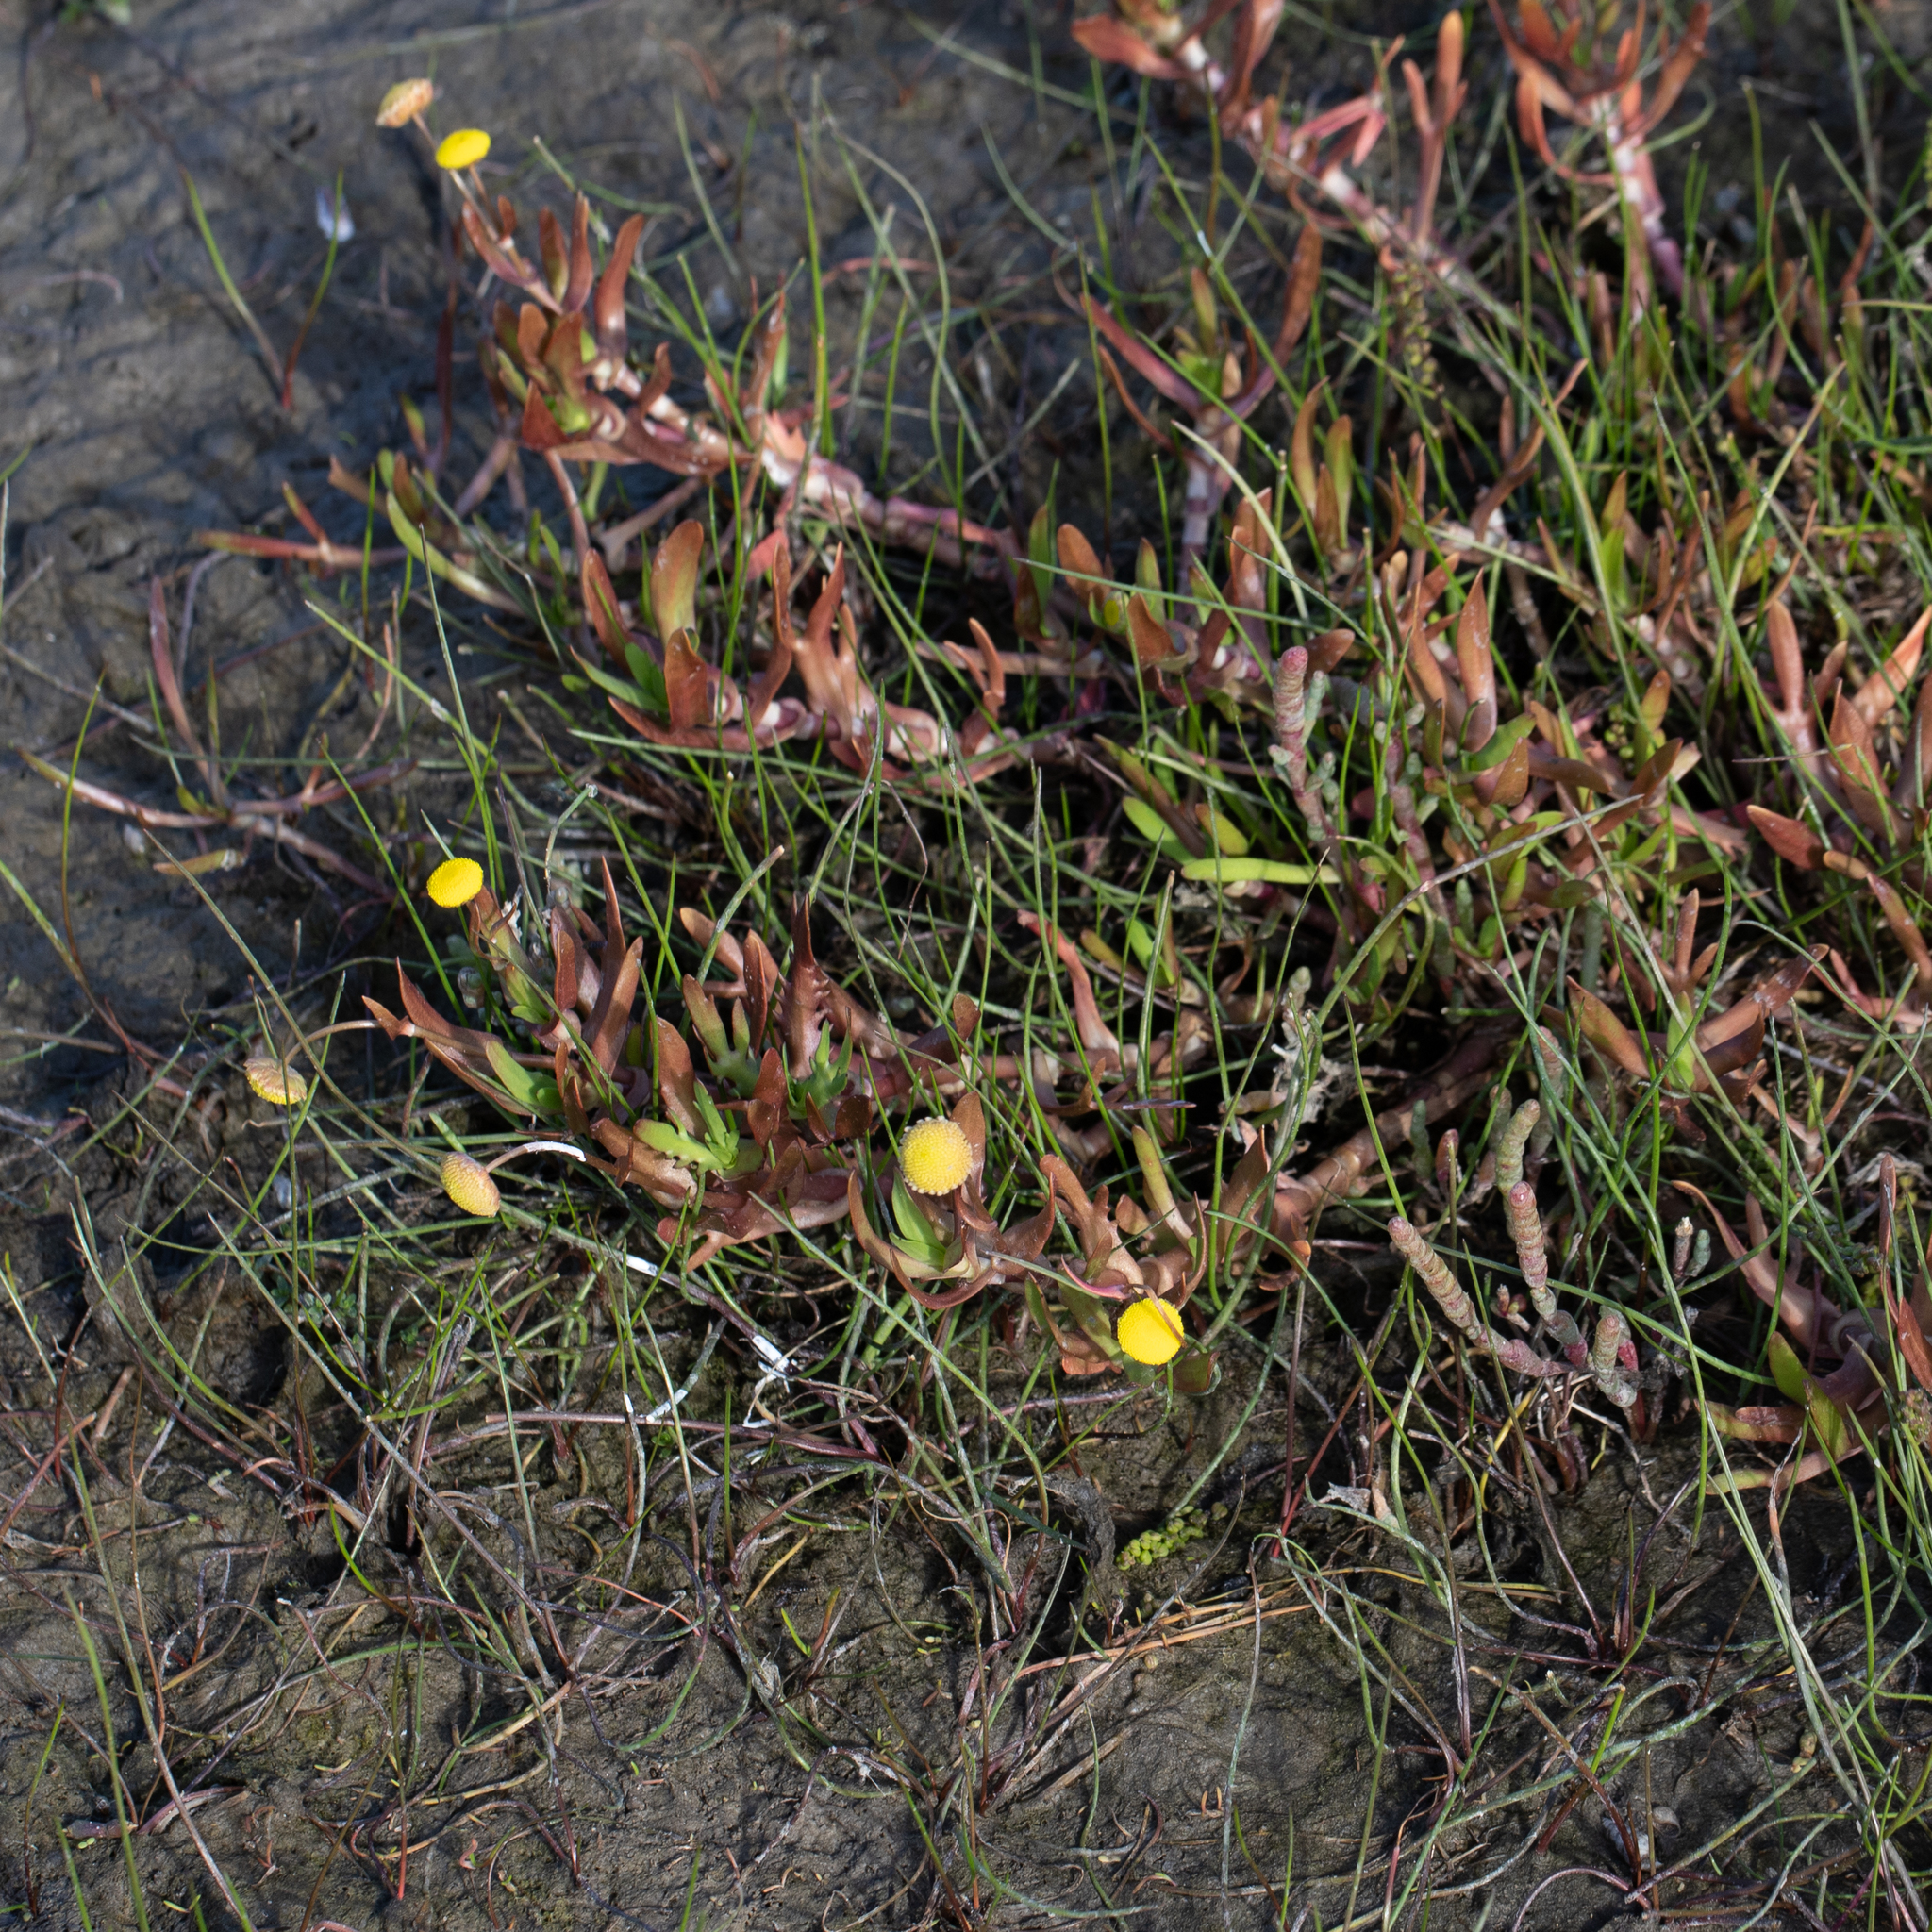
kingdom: Plantae
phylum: Tracheophyta
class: Magnoliopsida
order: Asterales
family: Asteraceae
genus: Cotula
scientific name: Cotula coronopifolia
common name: Buttonweed
